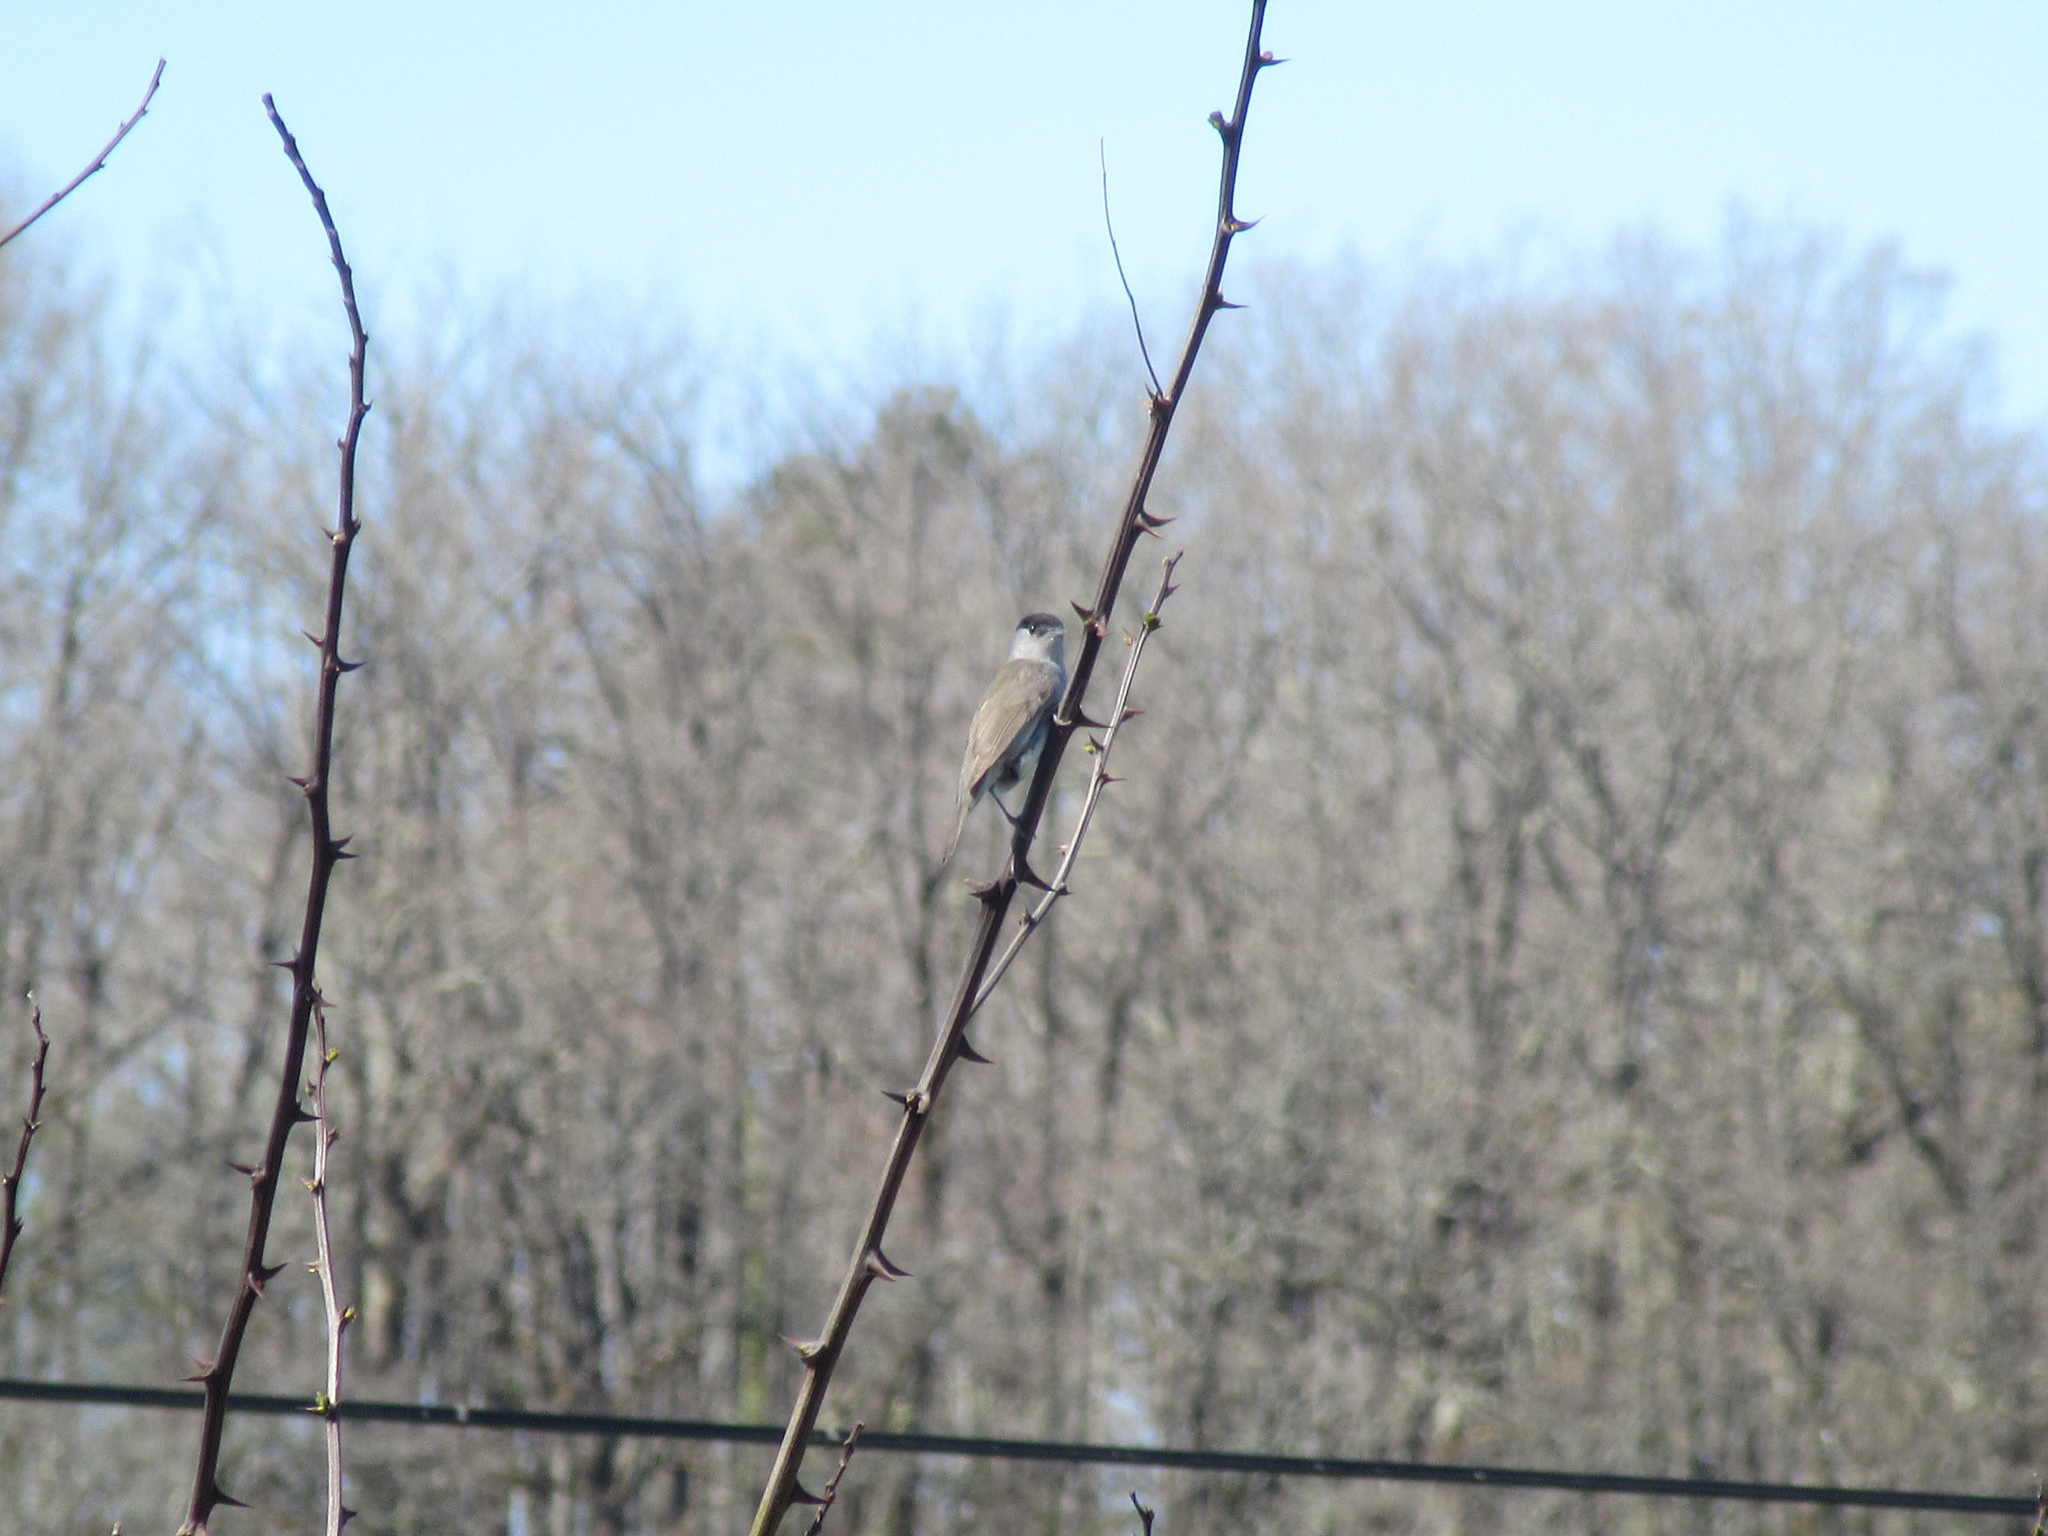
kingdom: Animalia
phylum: Chordata
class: Aves
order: Passeriformes
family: Sylviidae
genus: Sylvia
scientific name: Sylvia atricapilla
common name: Eurasian blackcap
